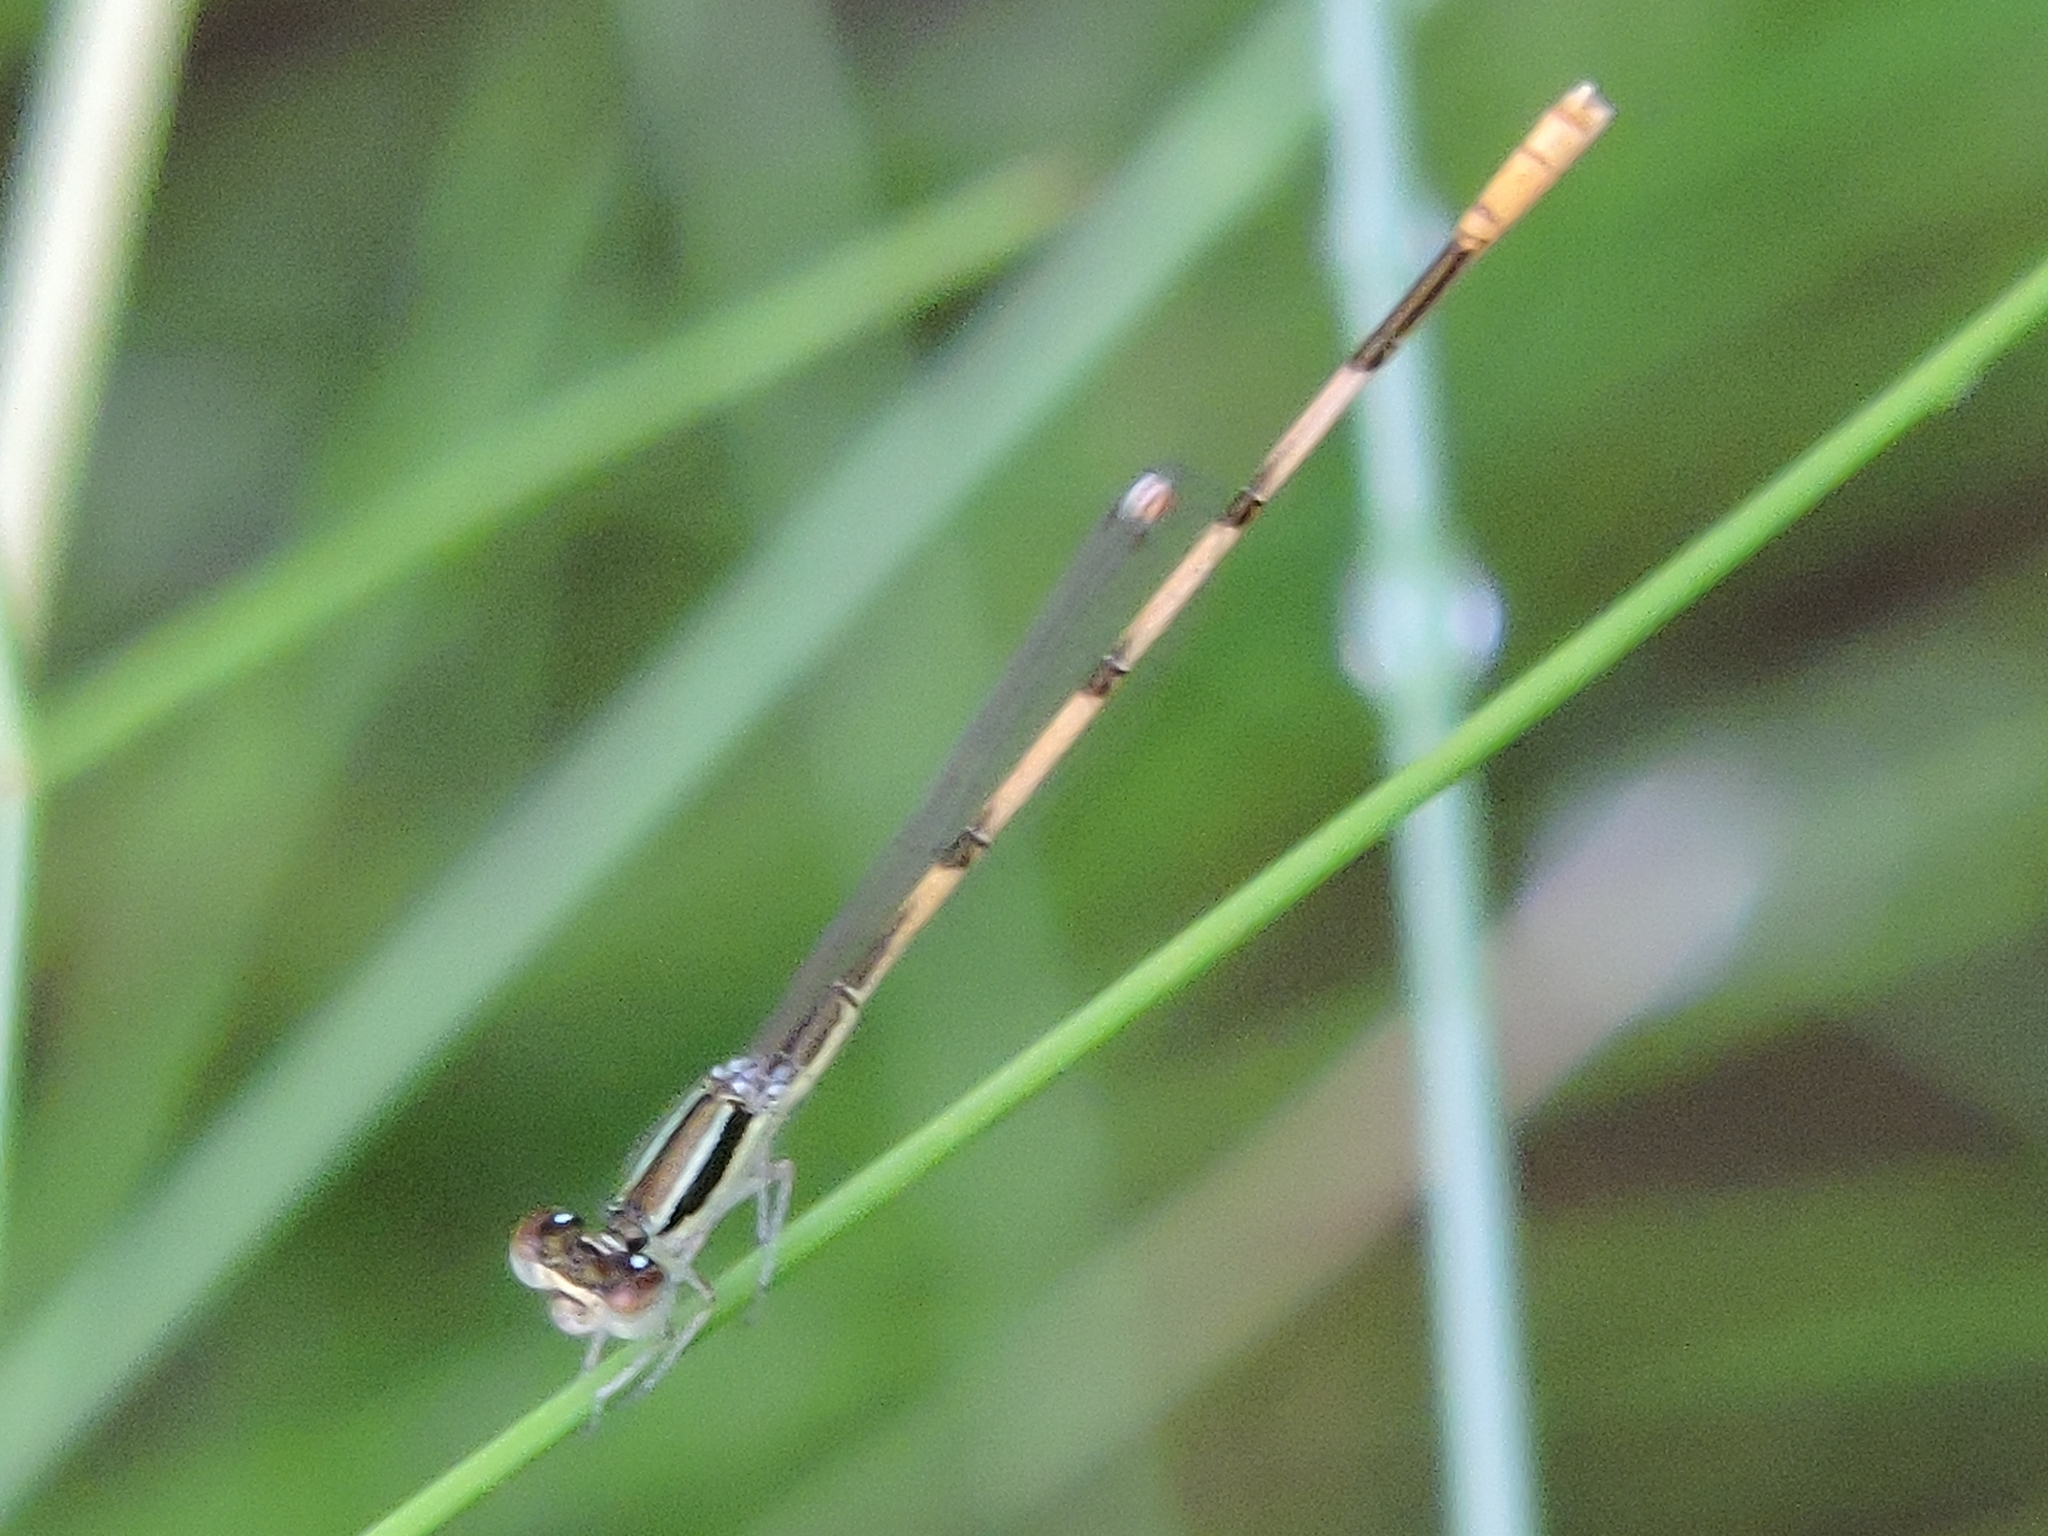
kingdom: Animalia
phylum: Arthropoda
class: Insecta
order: Odonata
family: Coenagrionidae
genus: Ischnura
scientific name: Ischnura hastata
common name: Citrine forktail
